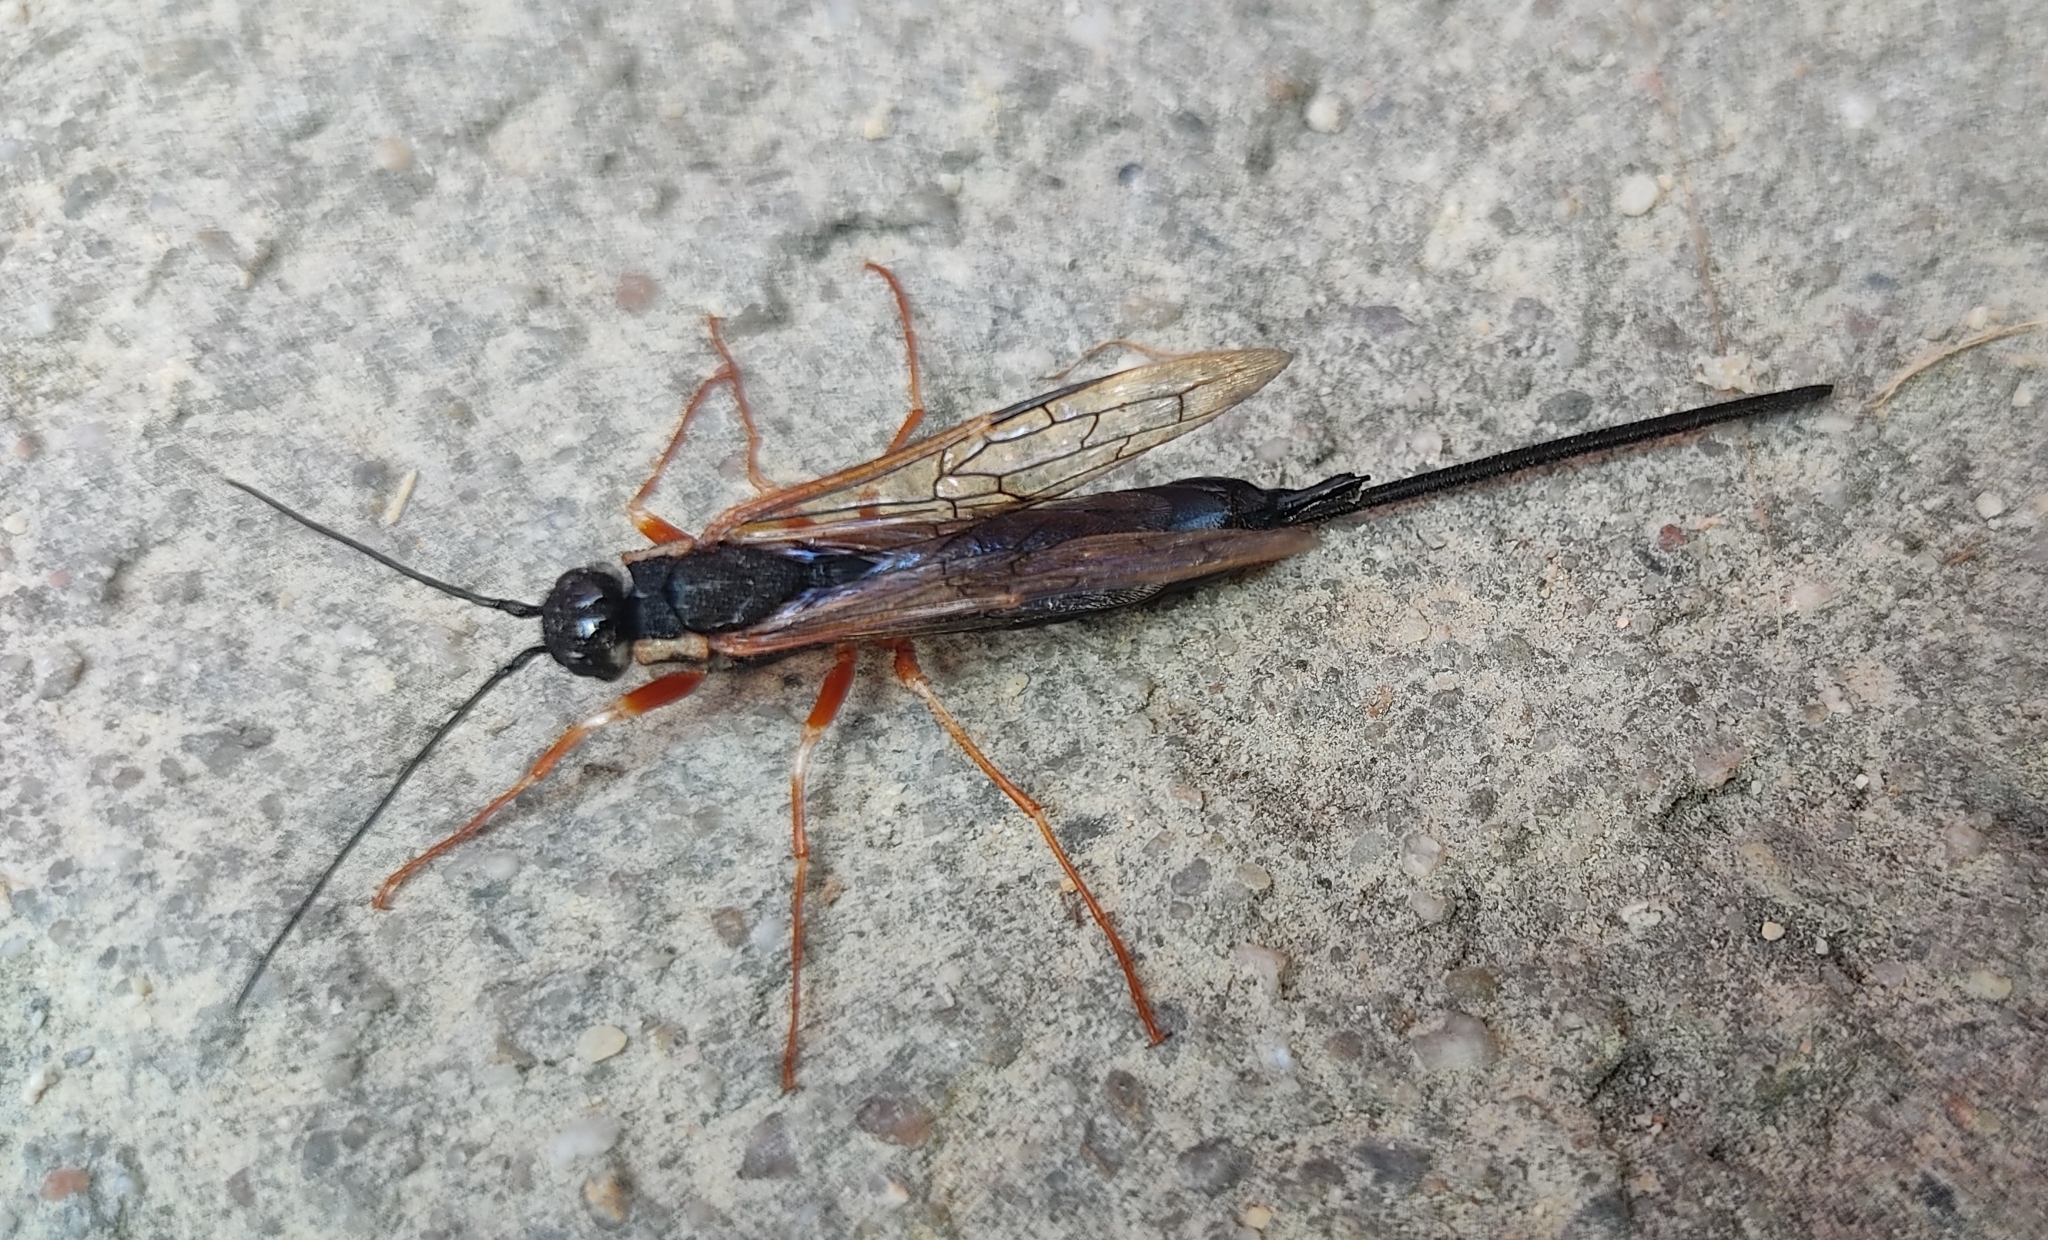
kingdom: Animalia
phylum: Arthropoda
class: Insecta
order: Hymenoptera
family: Siricidae
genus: Xeris
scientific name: Xeris pallicoxae
